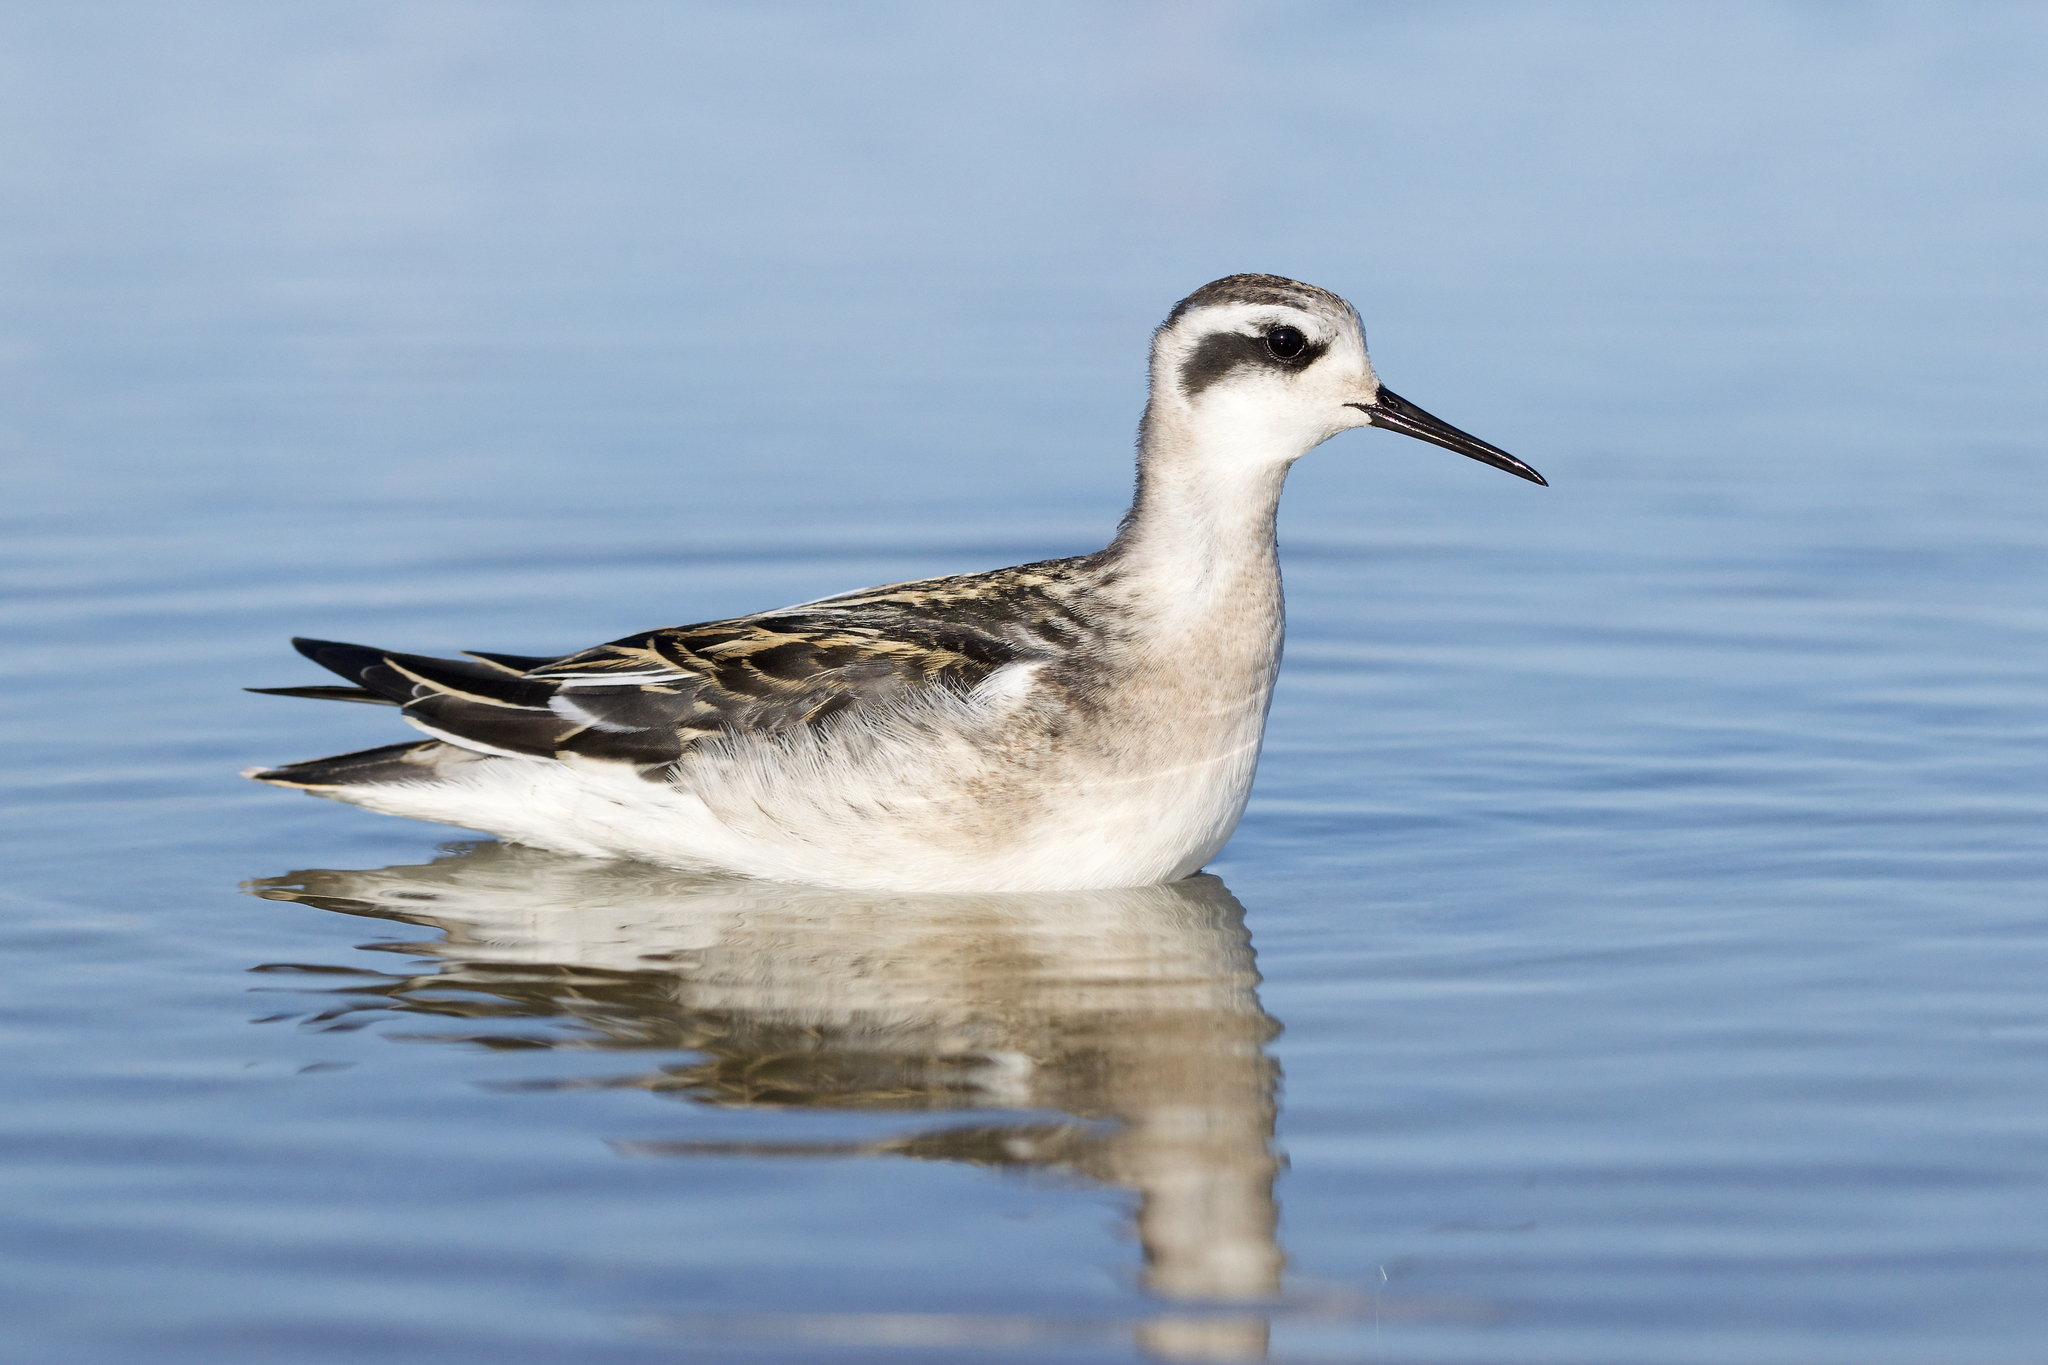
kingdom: Animalia
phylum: Chordata
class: Aves
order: Charadriiformes
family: Scolopacidae
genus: Phalaropus
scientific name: Phalaropus lobatus
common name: Red-necked phalarope
